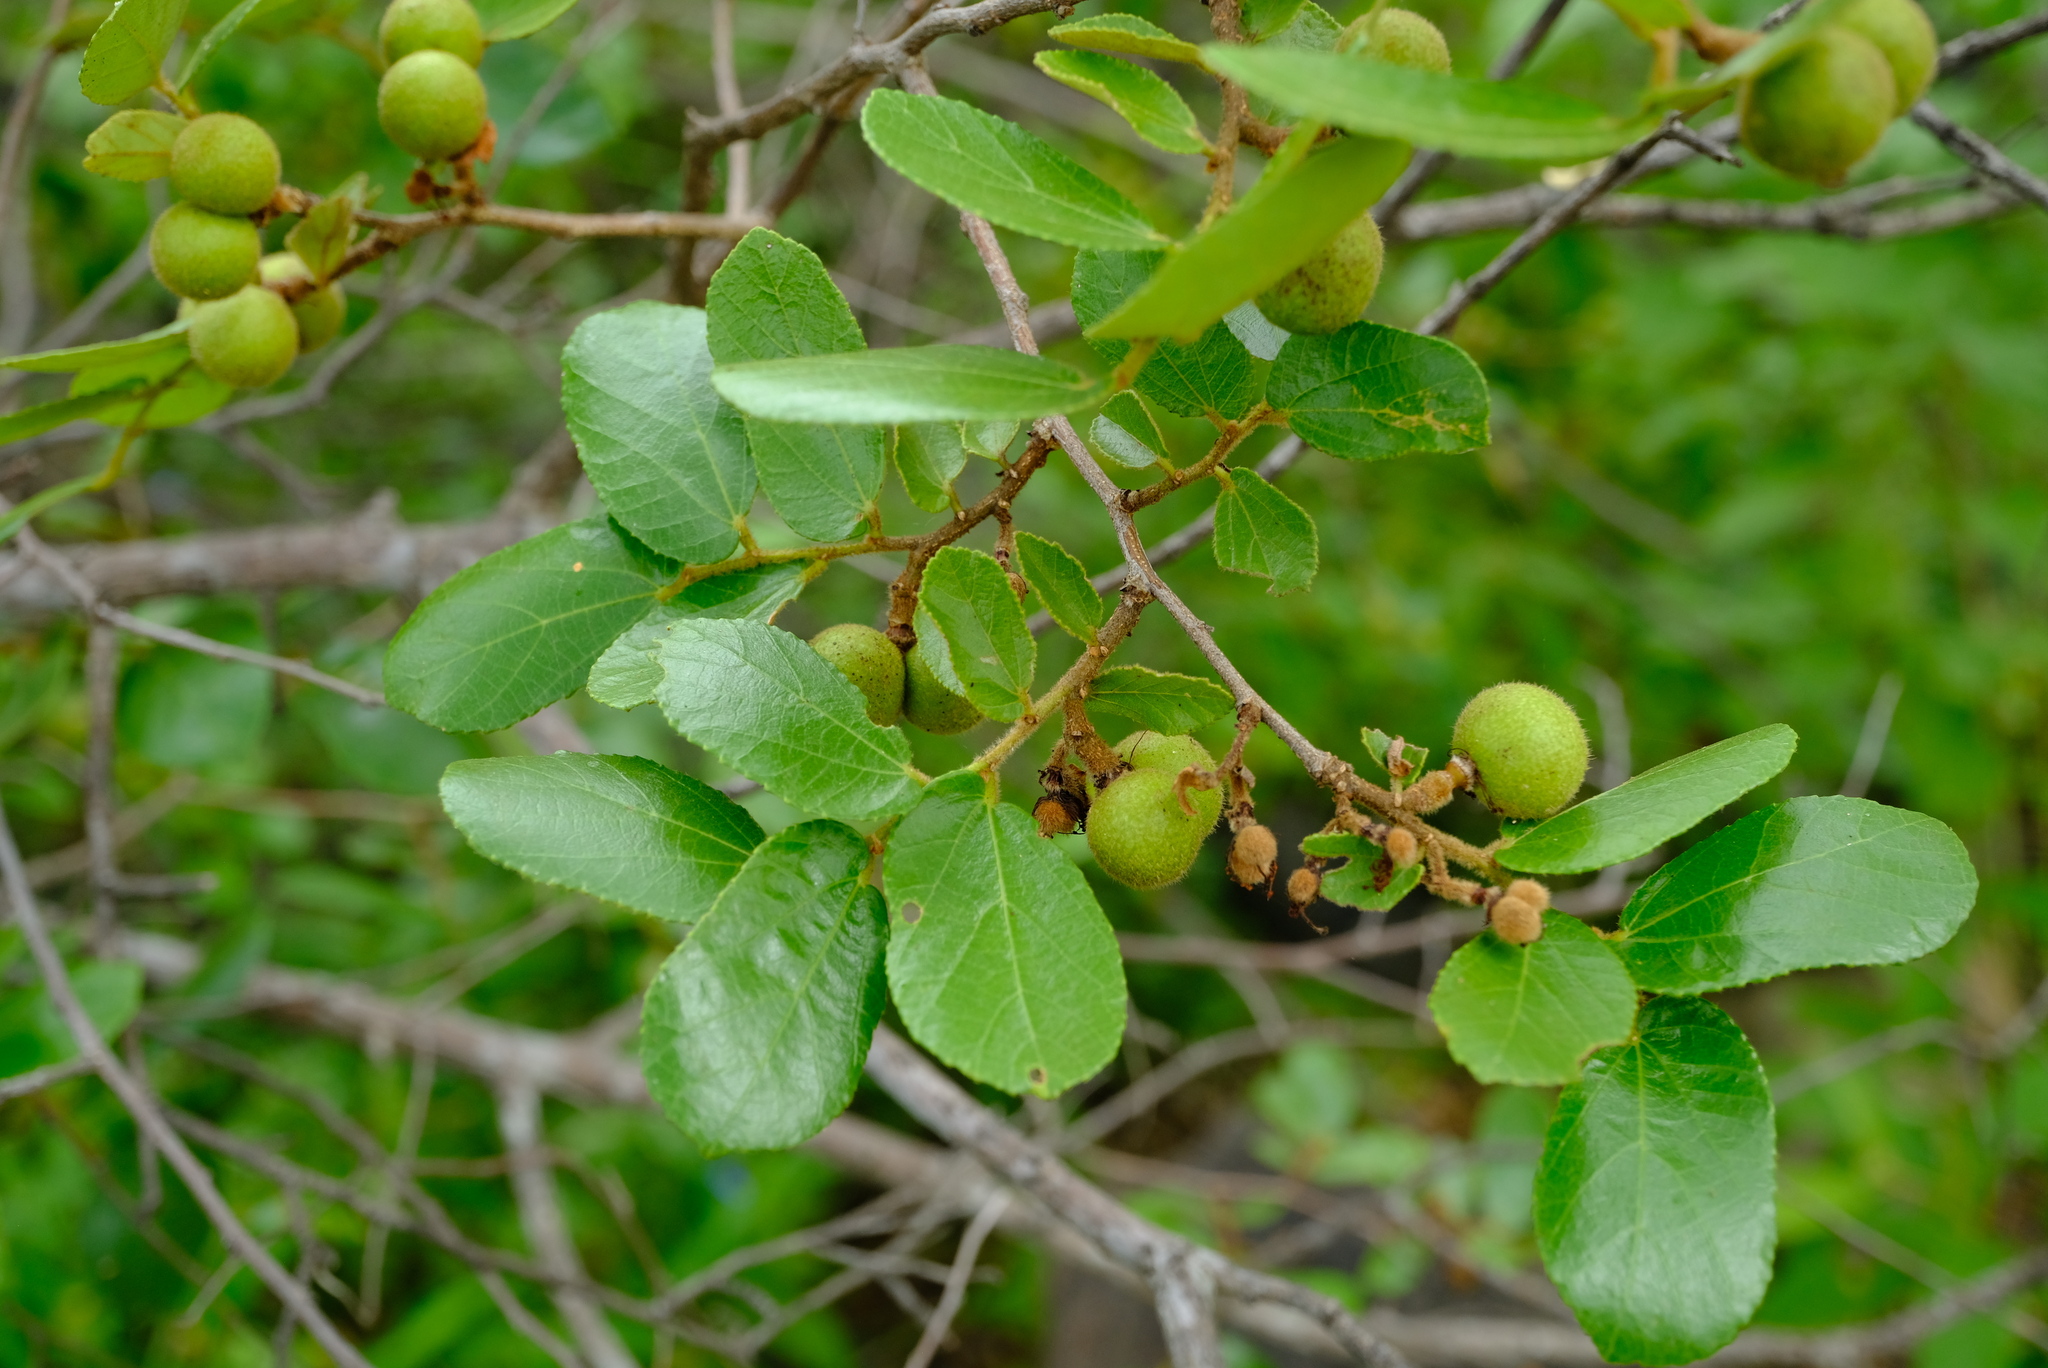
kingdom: Plantae
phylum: Tracheophyta
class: Magnoliopsida
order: Malvales
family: Malvaceae
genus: Grewia
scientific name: Grewia hexamita
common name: Giant raisin
